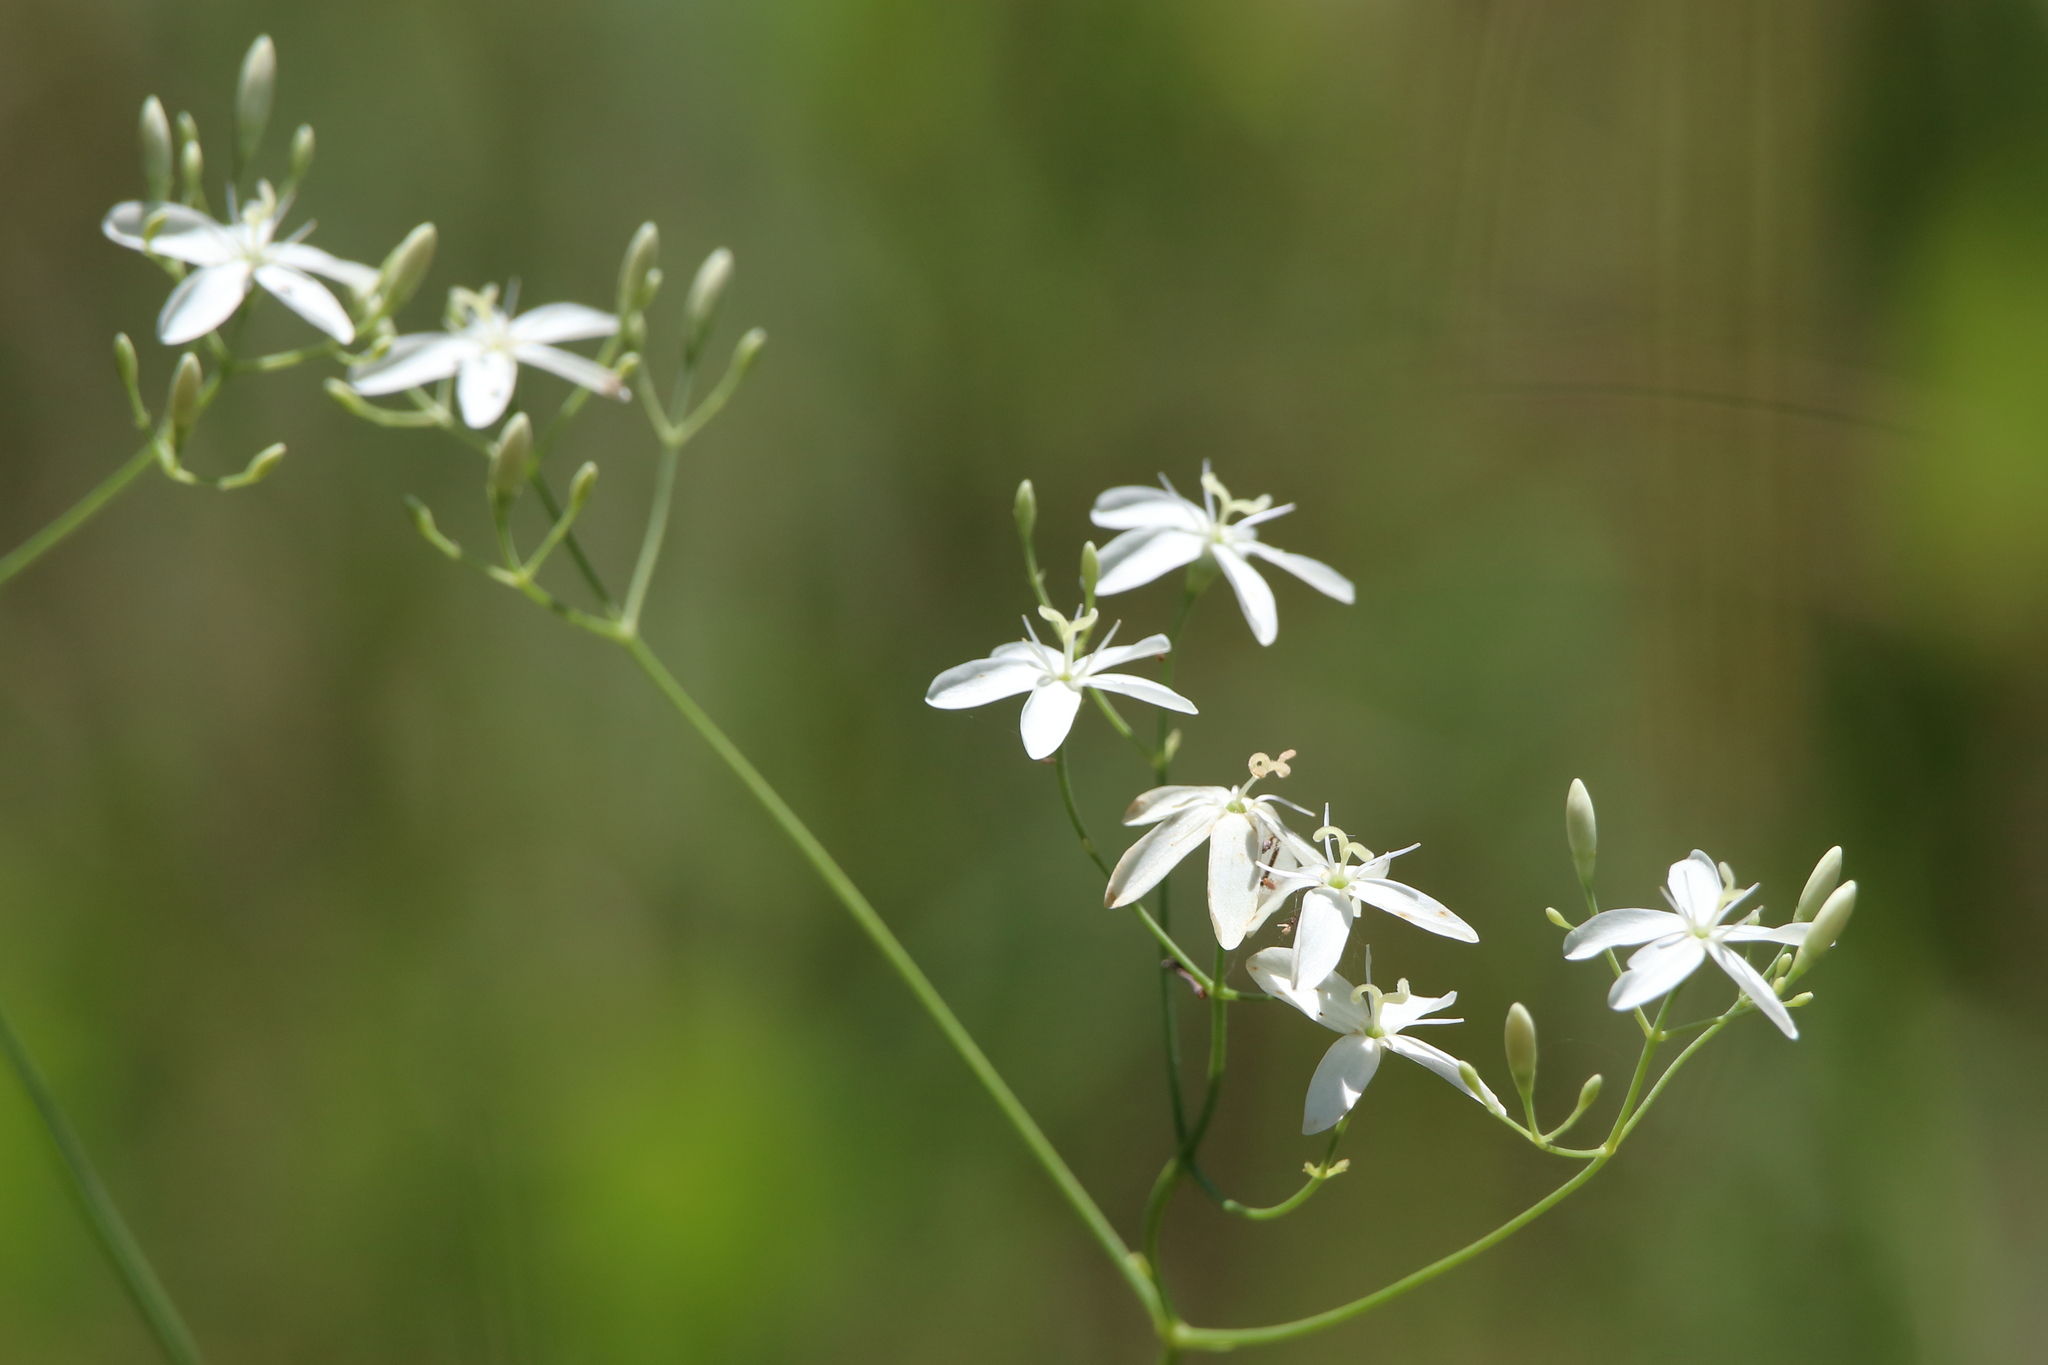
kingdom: Plantae
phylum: Tracheophyta
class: Magnoliopsida
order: Gentianales
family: Gentianaceae
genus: Sabatia
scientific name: Sabatia macrophylla
